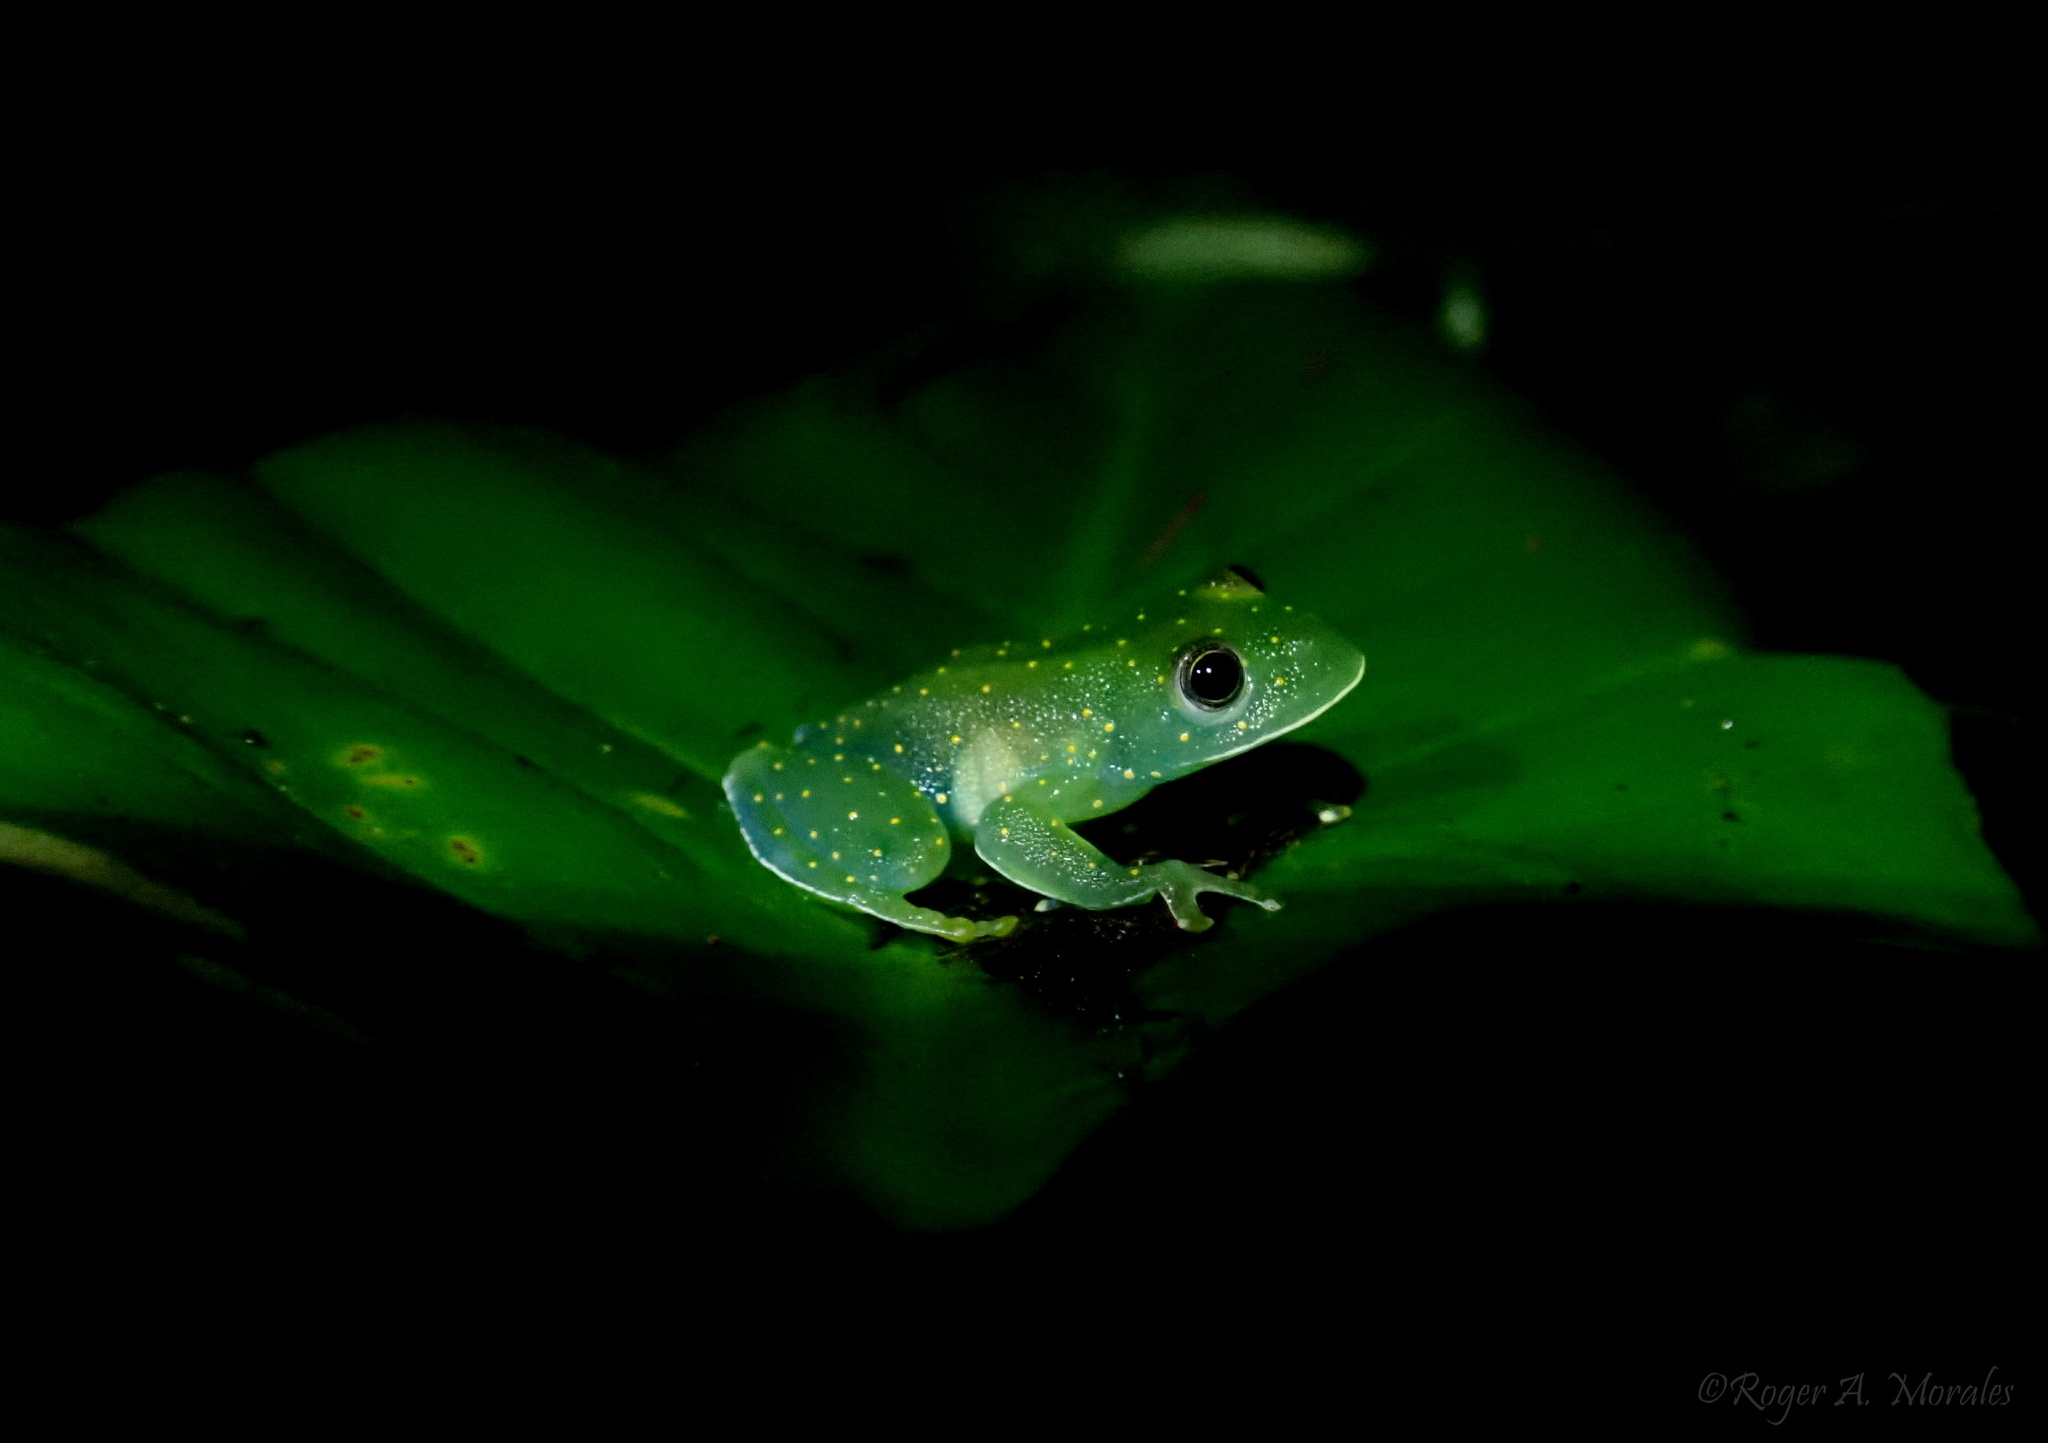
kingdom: Animalia
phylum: Chordata
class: Amphibia
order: Anura
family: Centrolenidae
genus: Cochranella
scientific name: Cochranella euknemos
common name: San jose cochran frog
